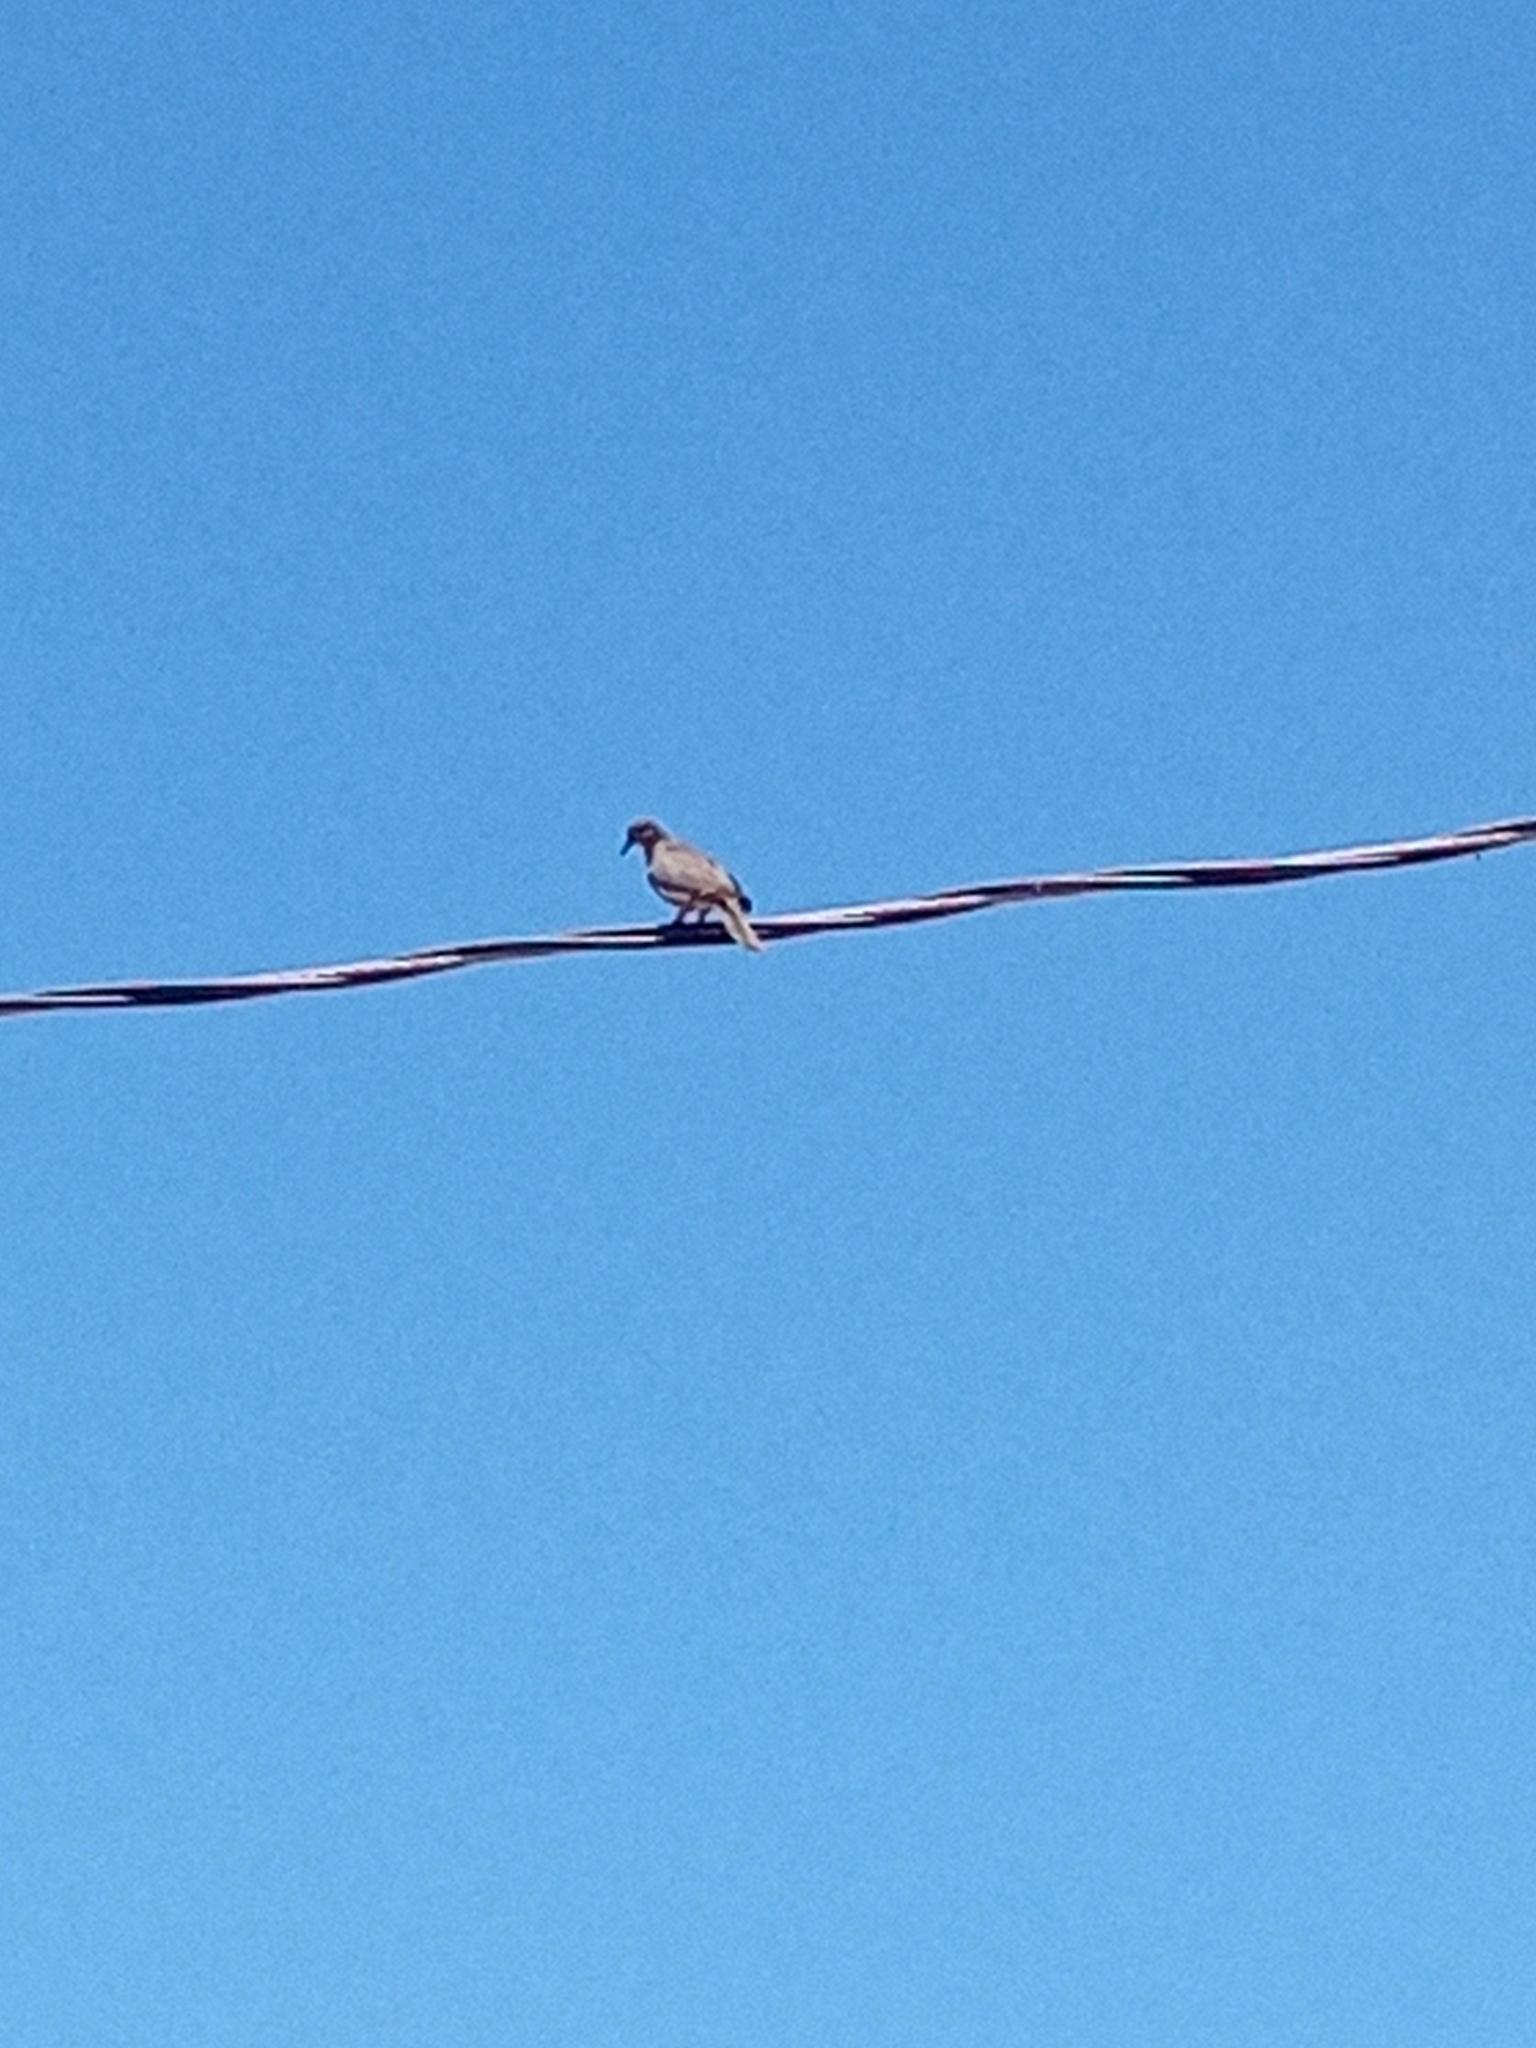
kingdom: Animalia
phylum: Chordata
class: Aves
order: Columbiformes
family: Columbidae
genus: Zenaida
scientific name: Zenaida asiatica
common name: White-winged dove
